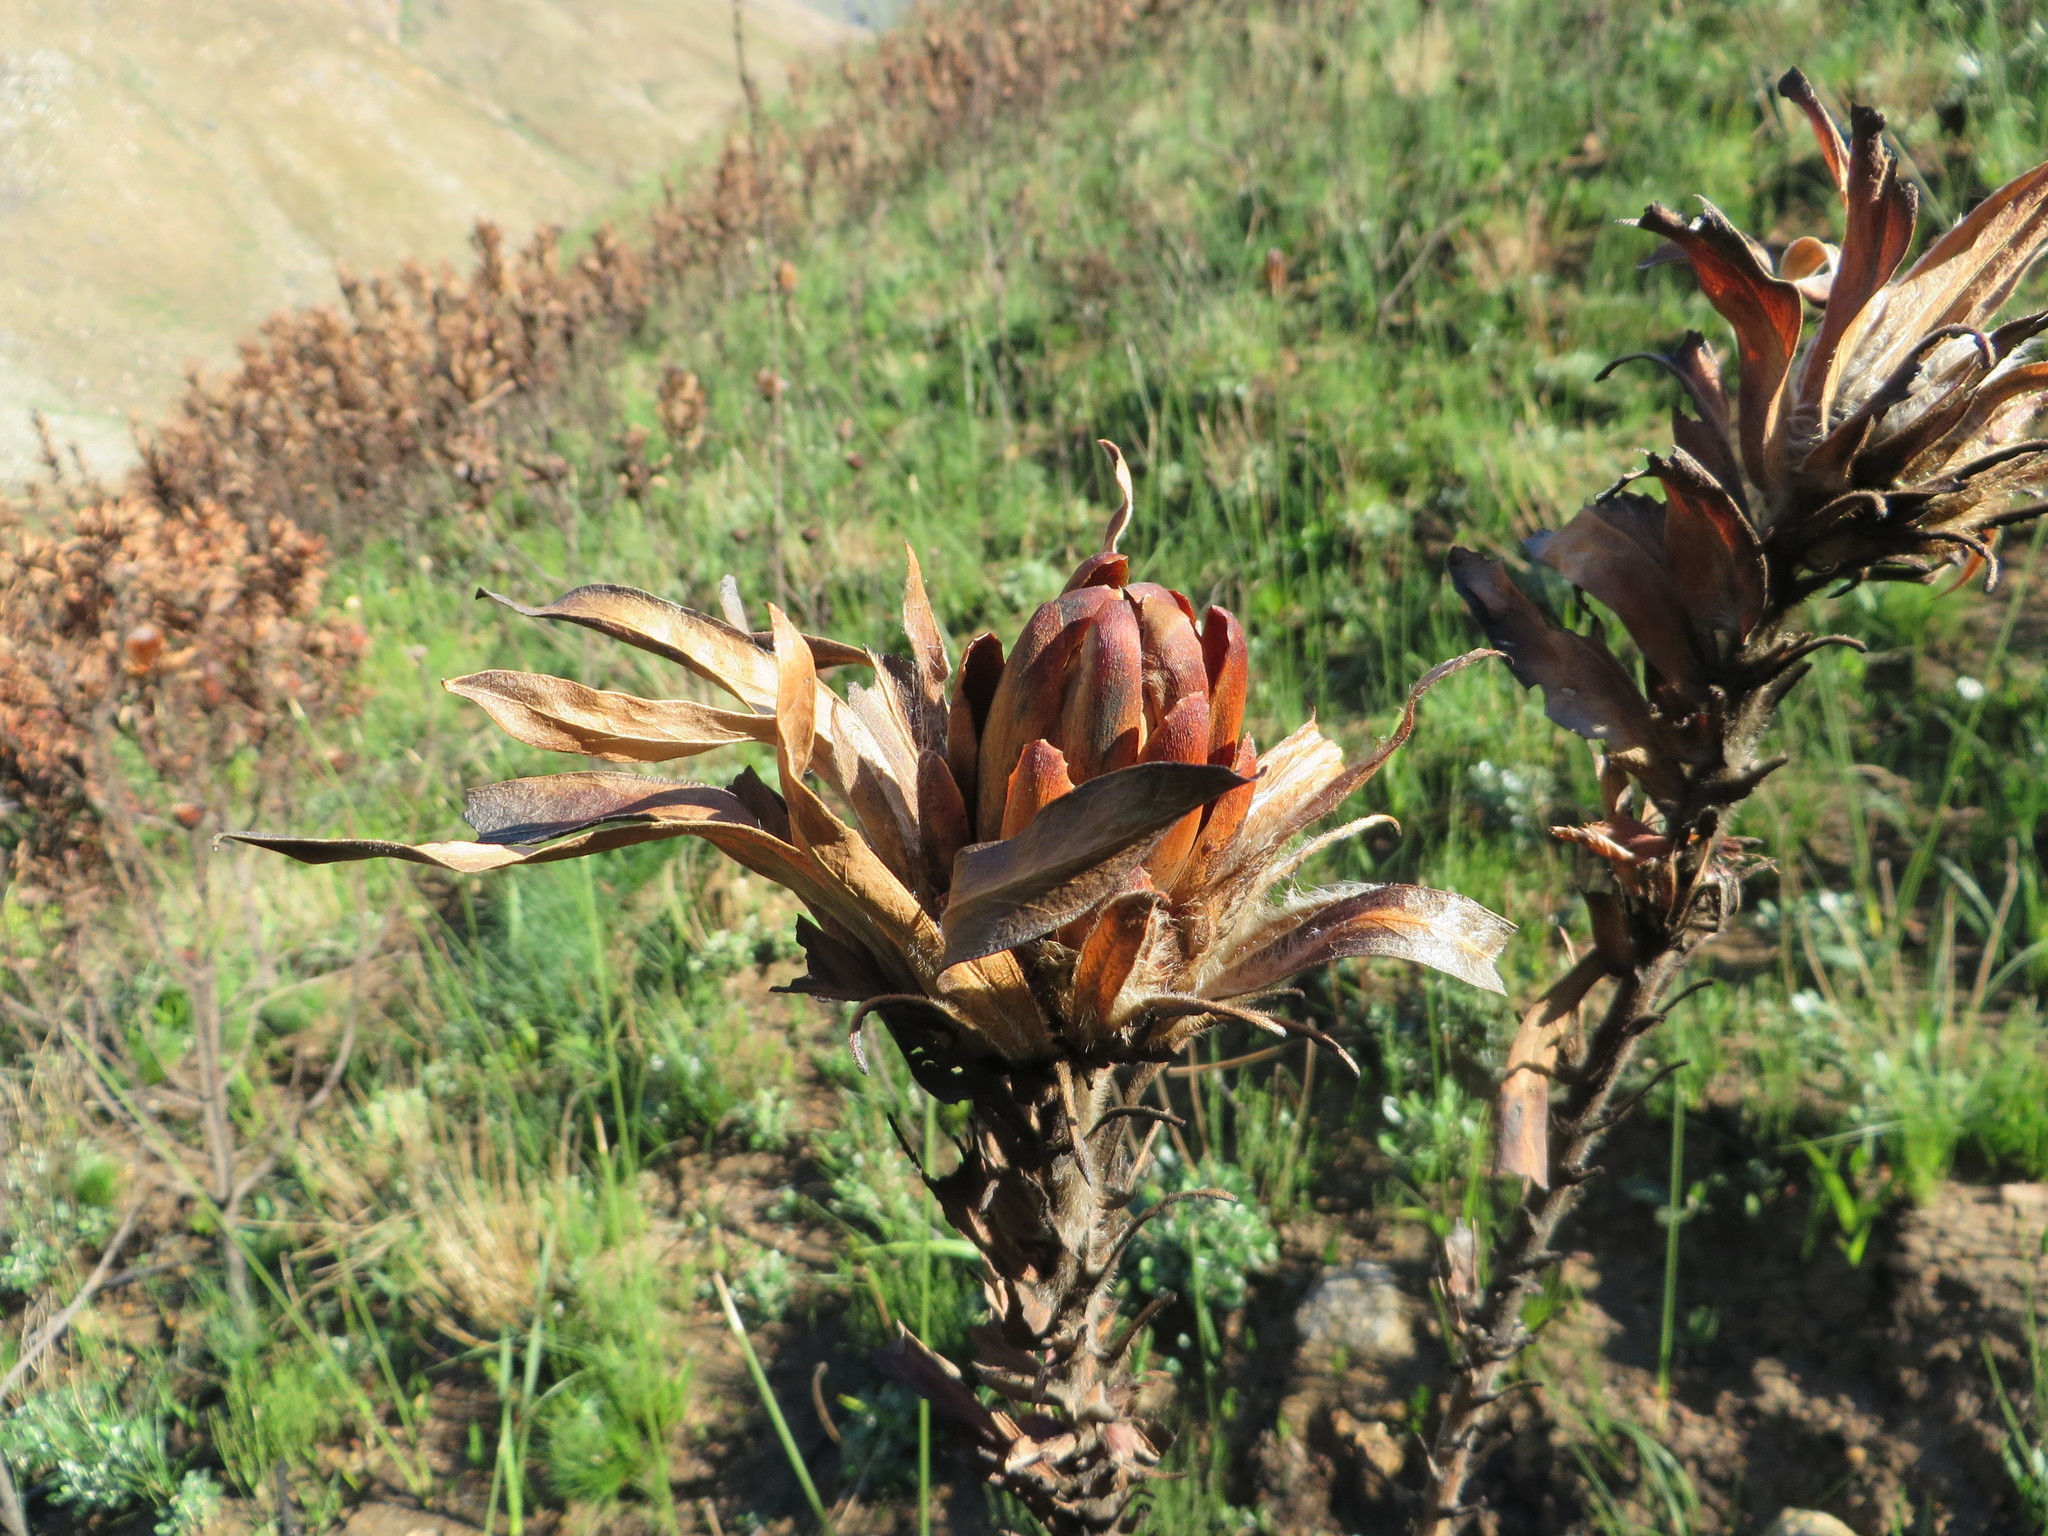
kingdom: Plantae
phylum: Tracheophyta
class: Magnoliopsida
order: Proteales
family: Proteaceae
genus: Protea
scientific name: Protea coronata
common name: Green sugarbush
